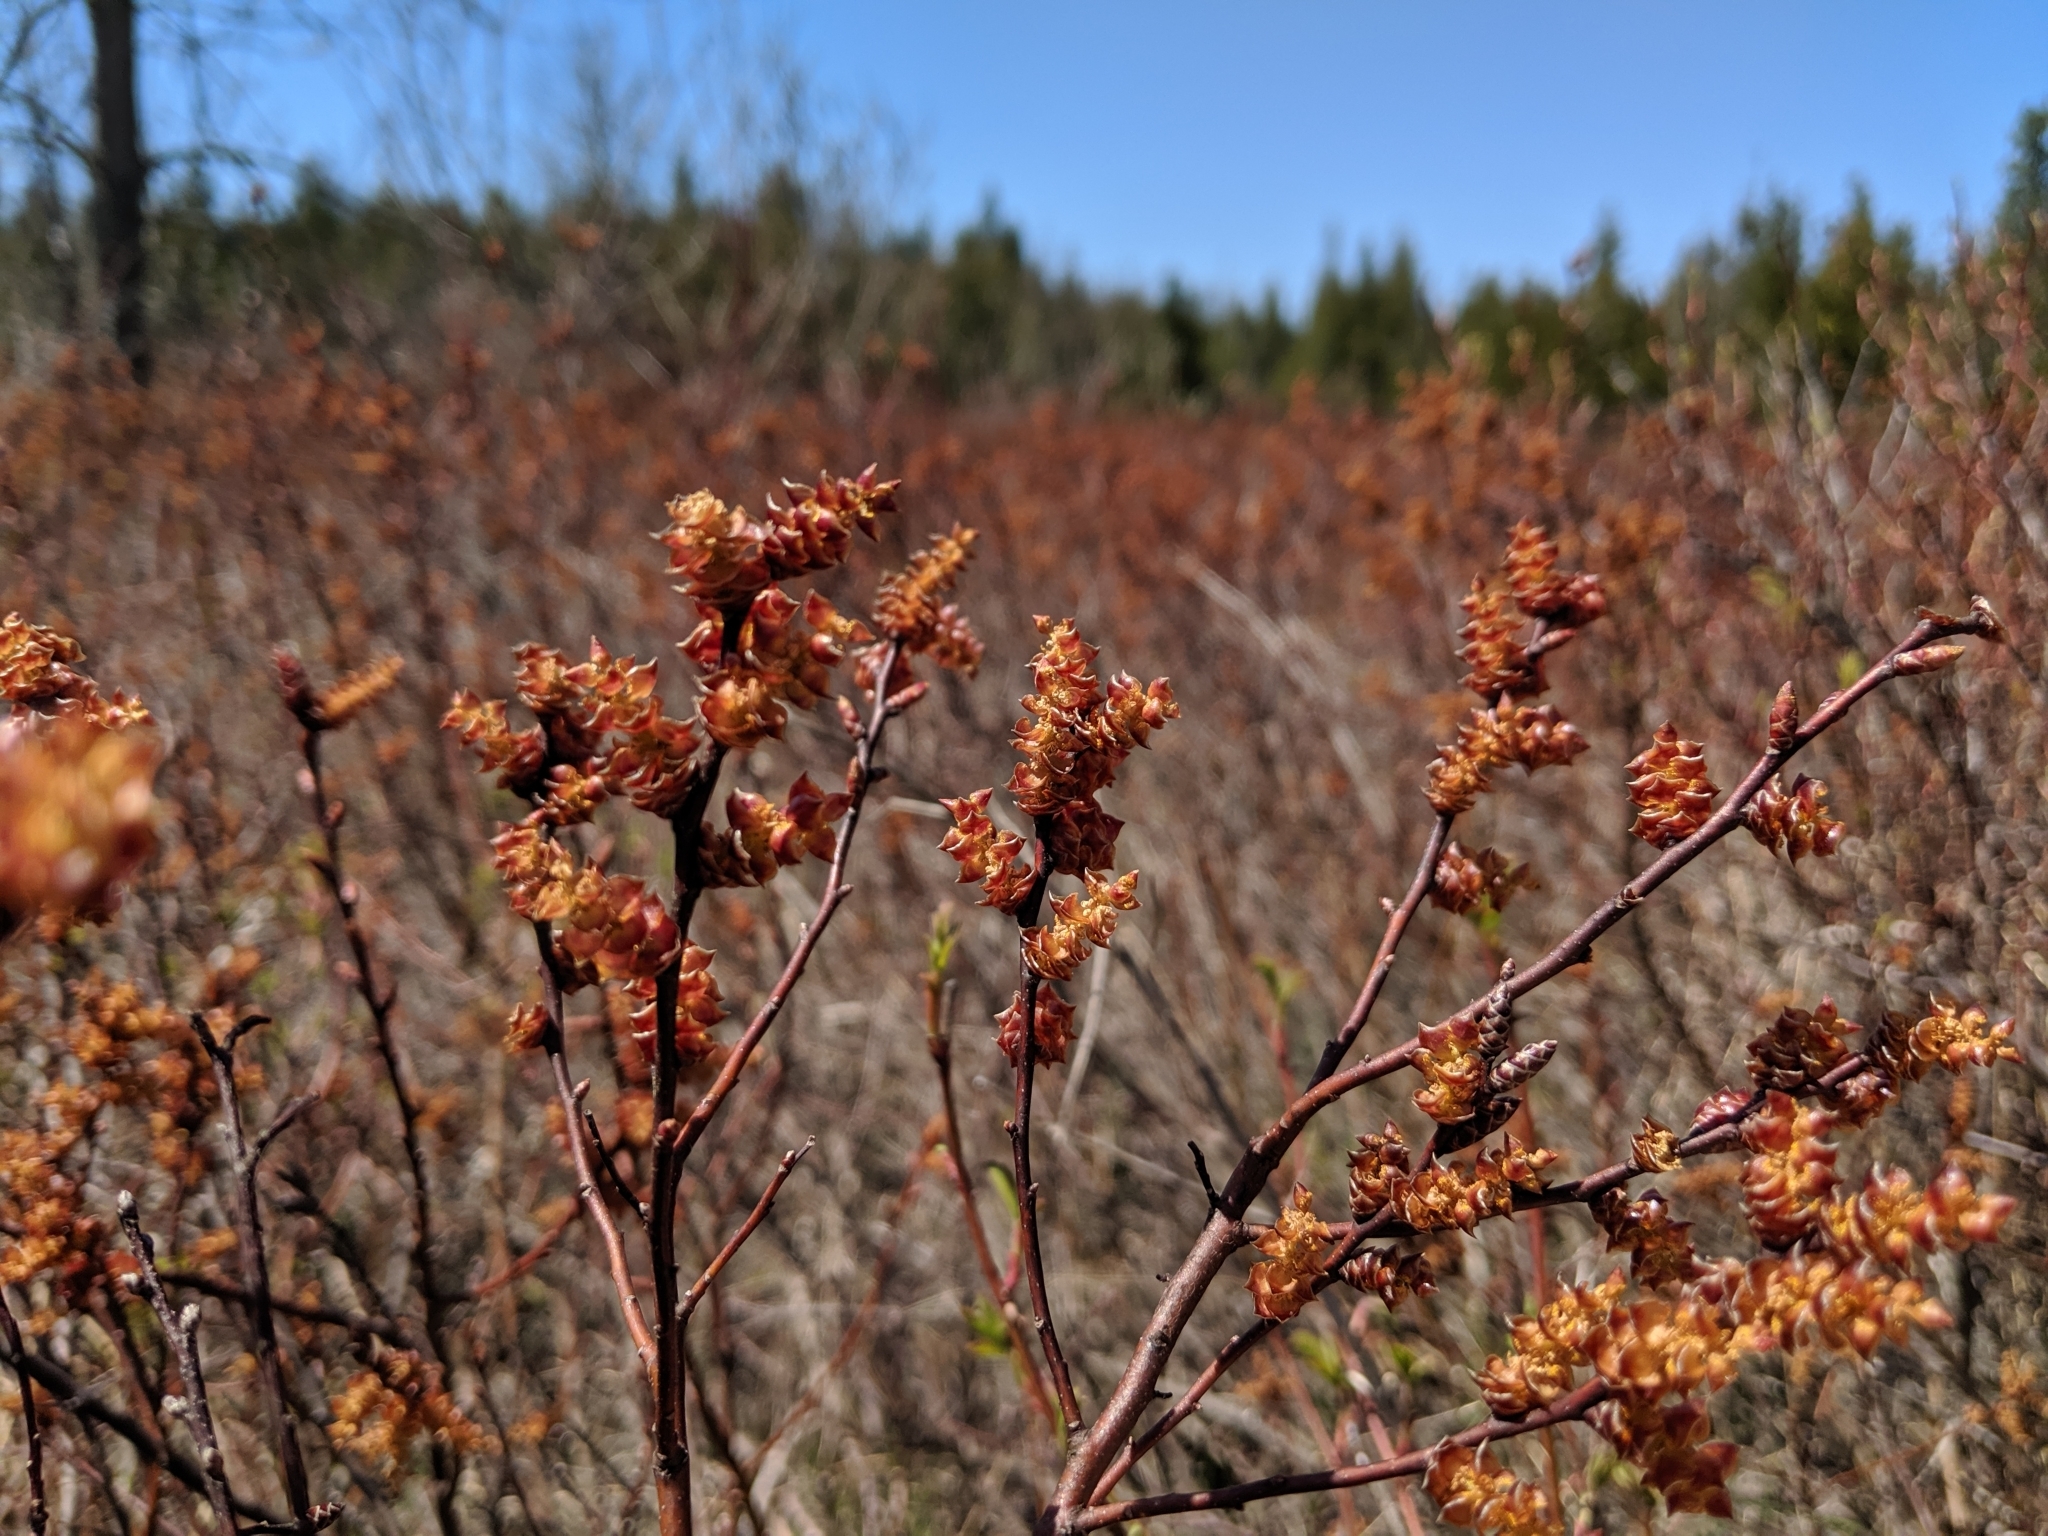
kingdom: Plantae
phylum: Tracheophyta
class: Magnoliopsida
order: Fagales
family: Myricaceae
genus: Myrica
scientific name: Myrica gale
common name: Sweet gale
